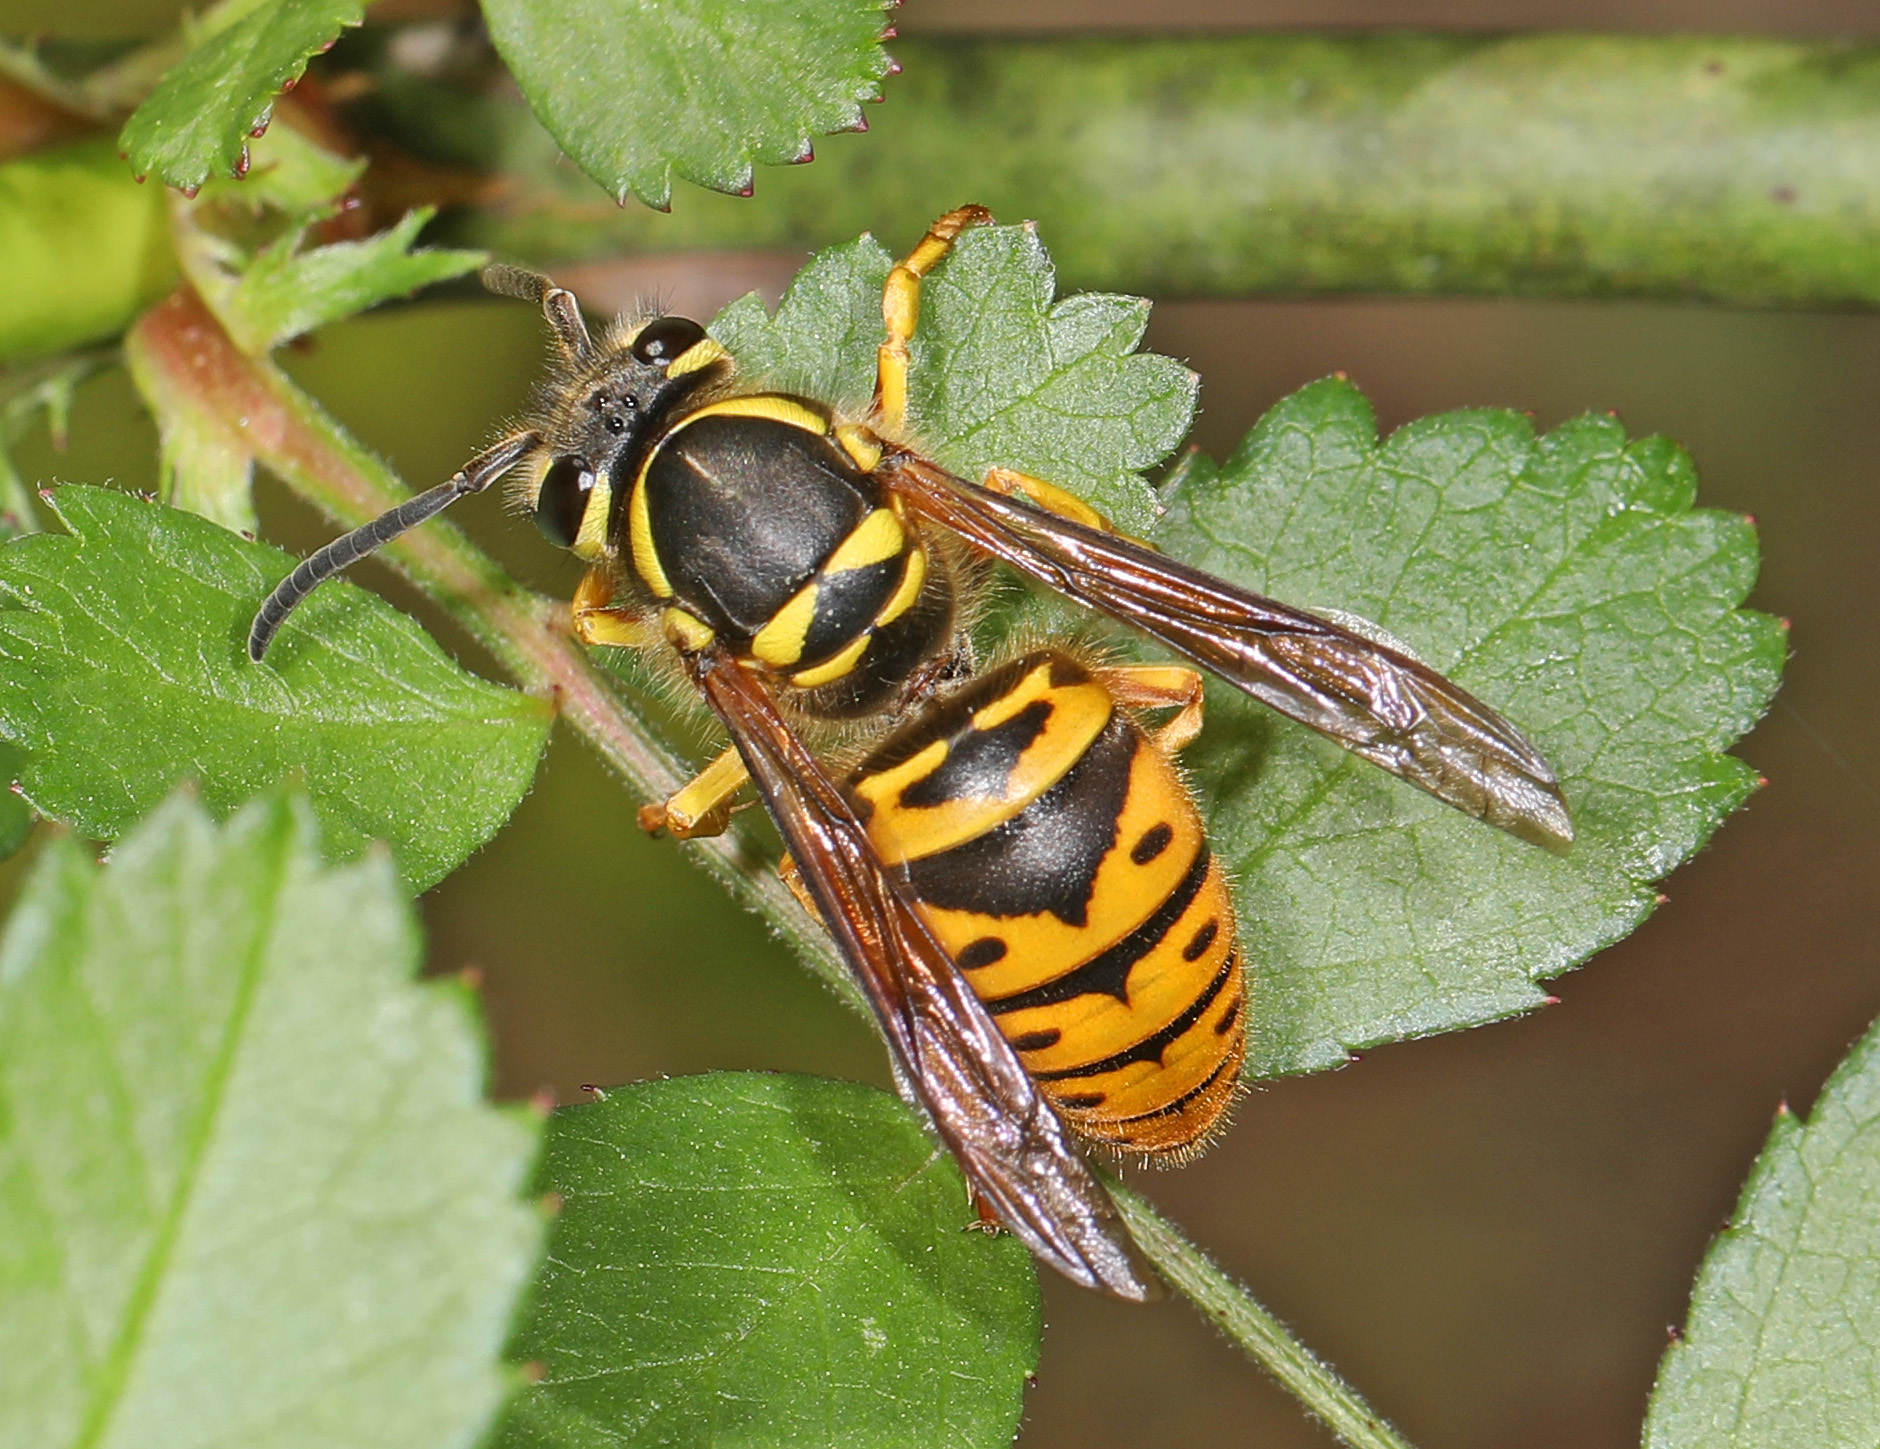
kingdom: Animalia
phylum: Arthropoda
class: Insecta
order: Hymenoptera
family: Vespidae
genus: Vespula
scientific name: Vespula maculifrons
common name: Eastern yellowjacket
